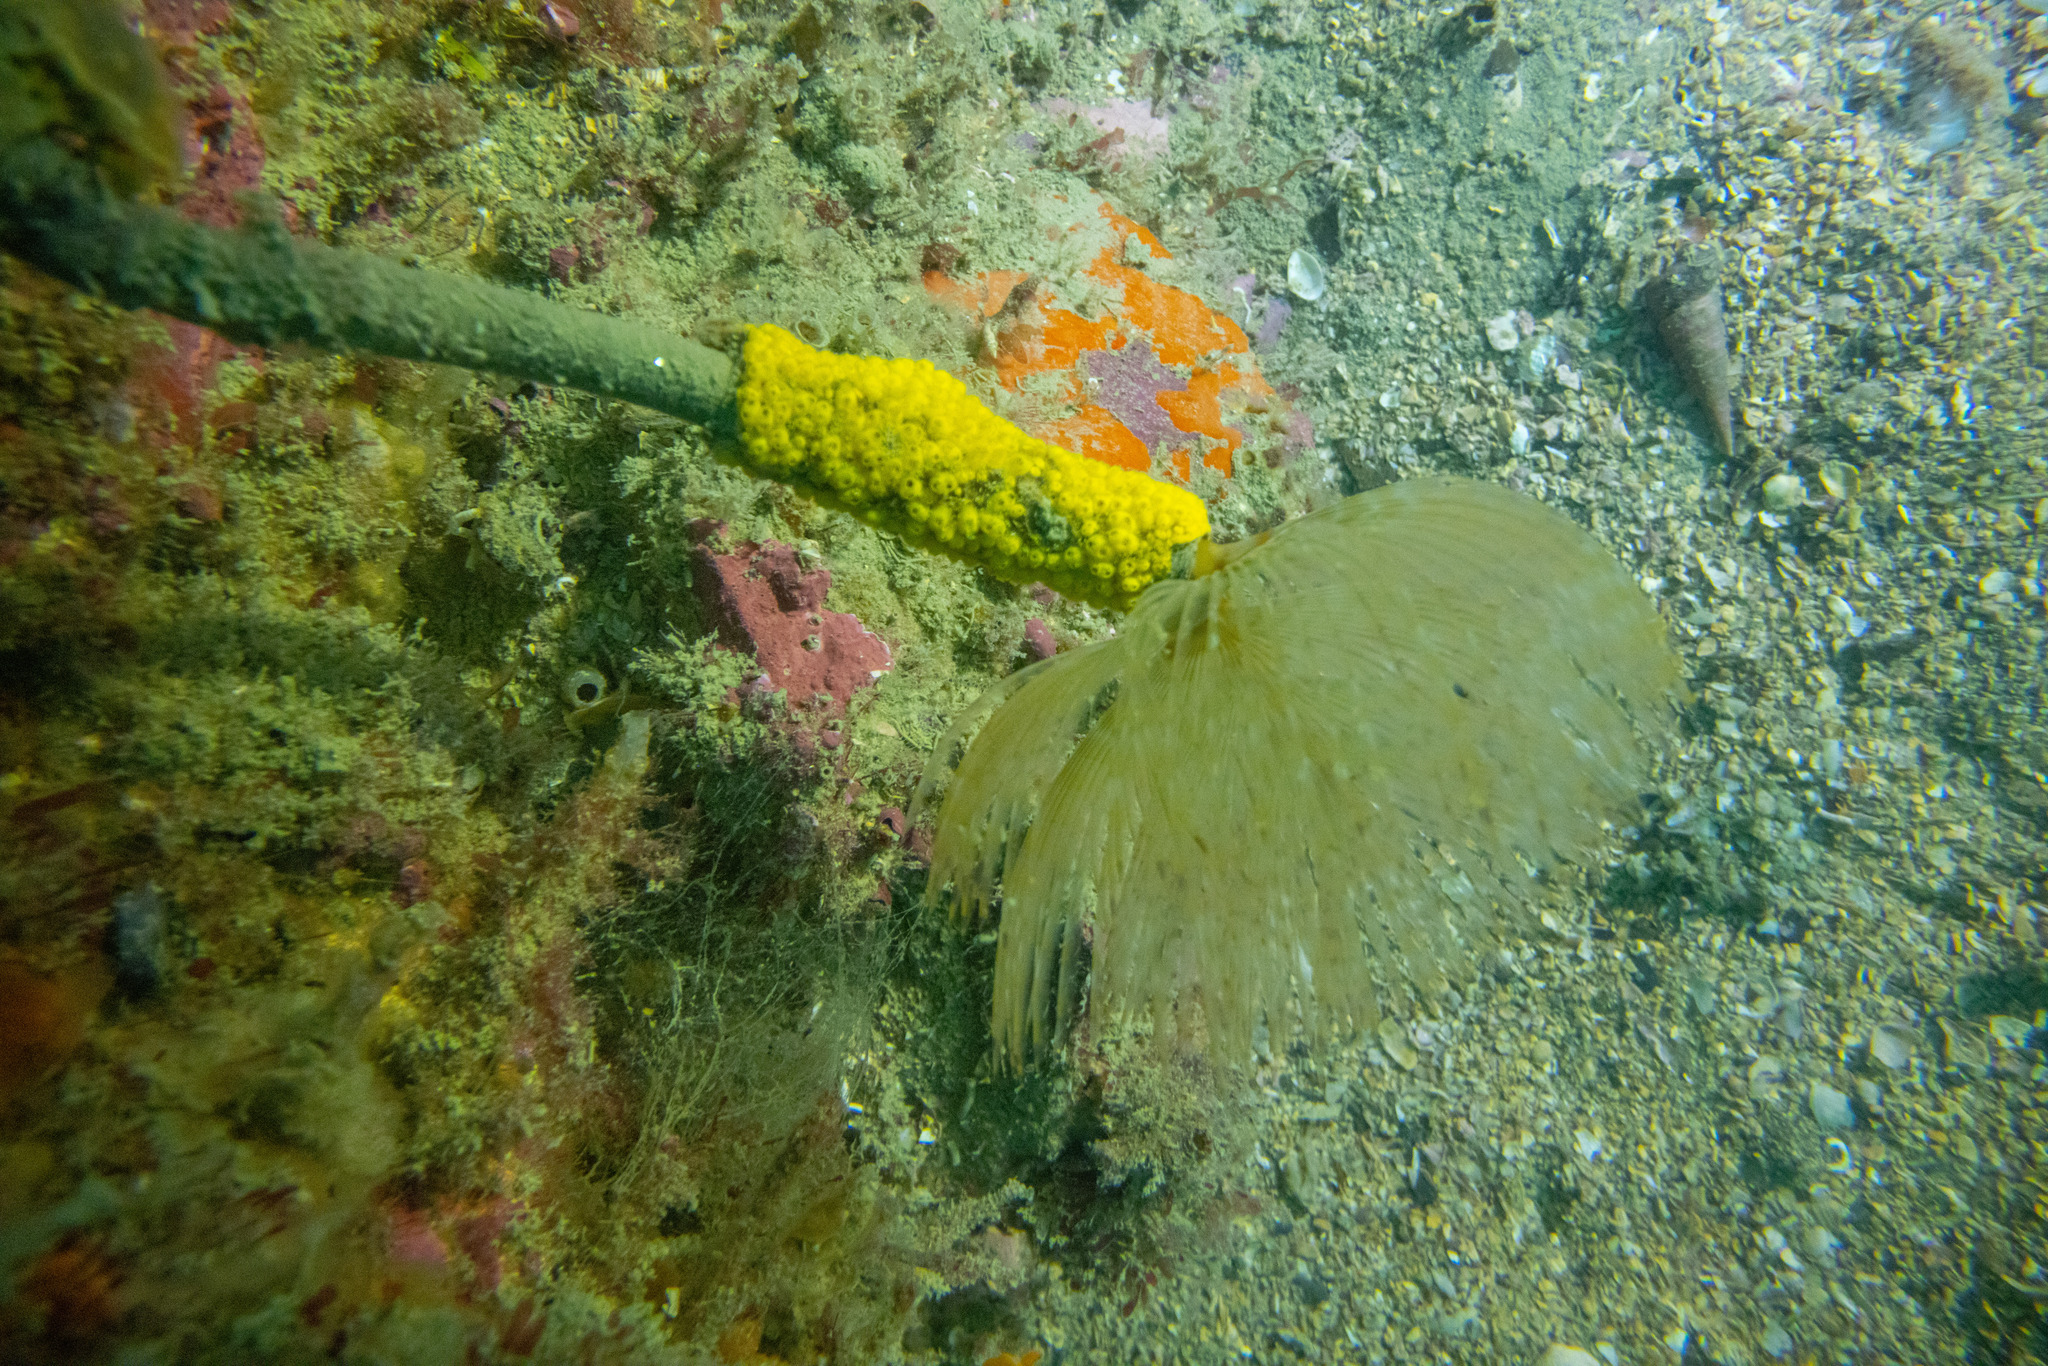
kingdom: Animalia
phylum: Chordata
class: Ascidiacea
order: Stolidobranchia
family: Styelidae
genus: Symplegma
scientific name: Symplegma brakenhielmi
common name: Ascidian
